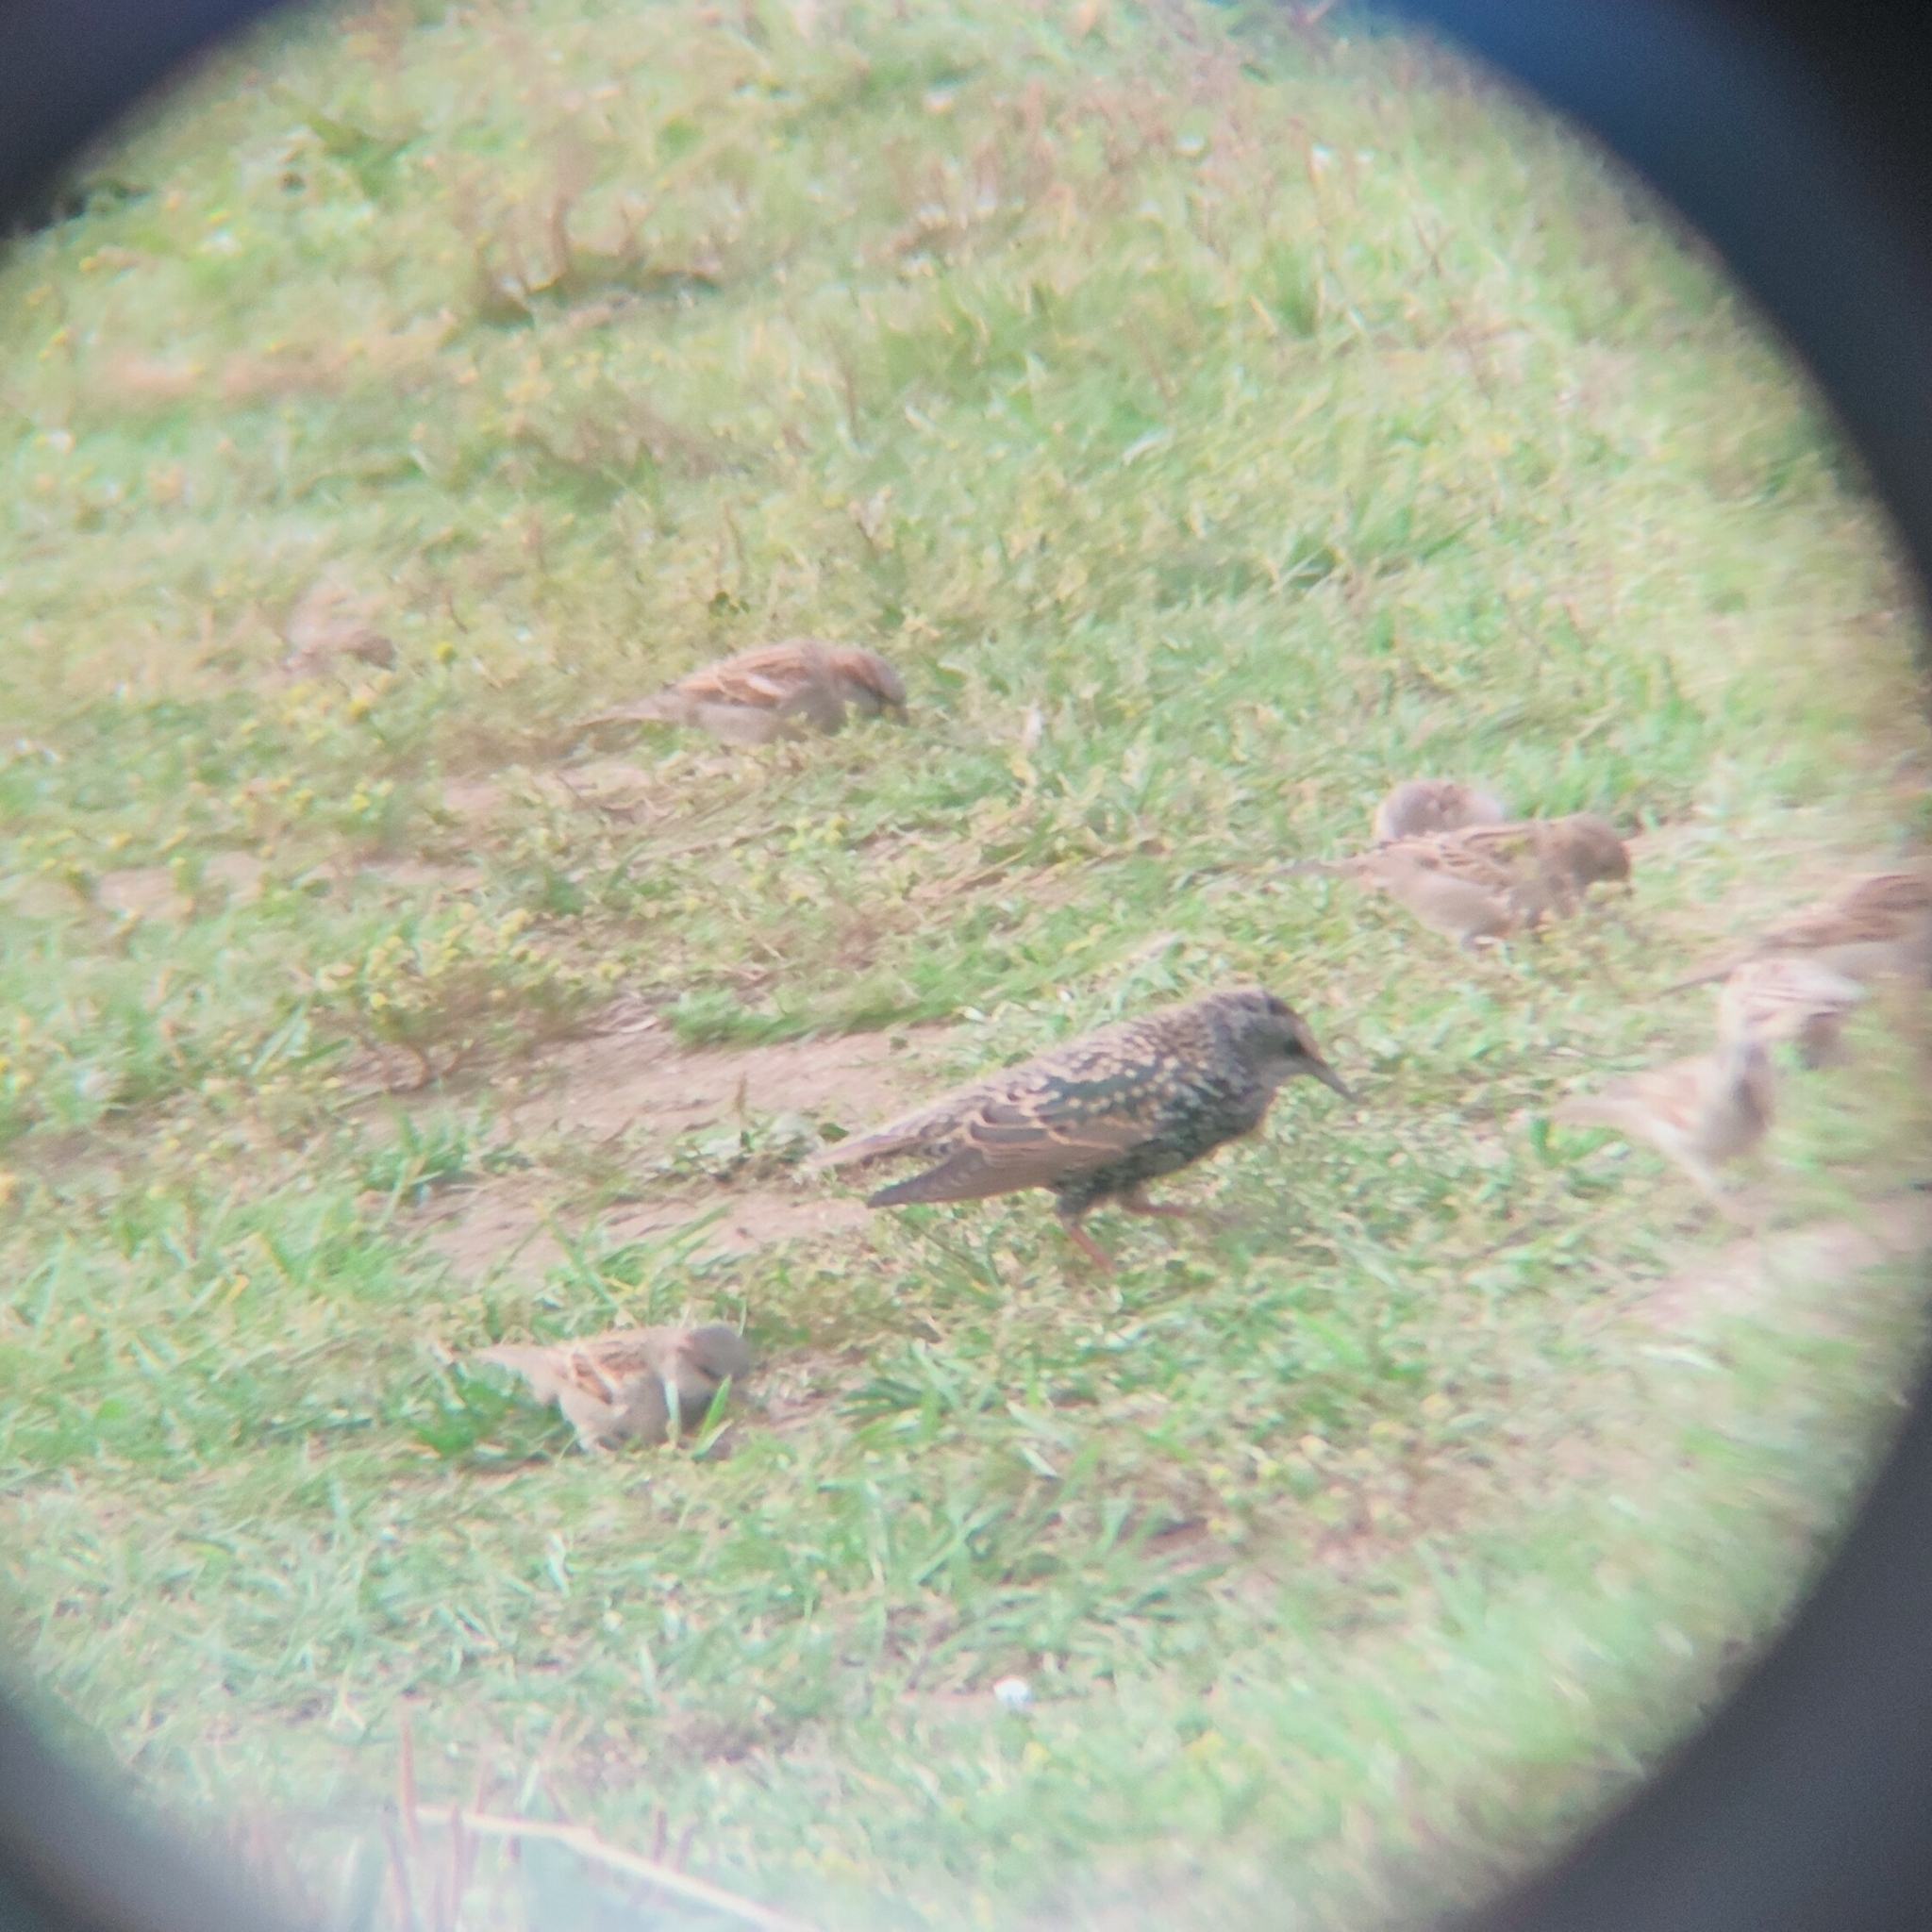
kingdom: Animalia
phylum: Chordata
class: Aves
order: Passeriformes
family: Sturnidae
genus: Sturnus
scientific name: Sturnus vulgaris
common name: Common starling
